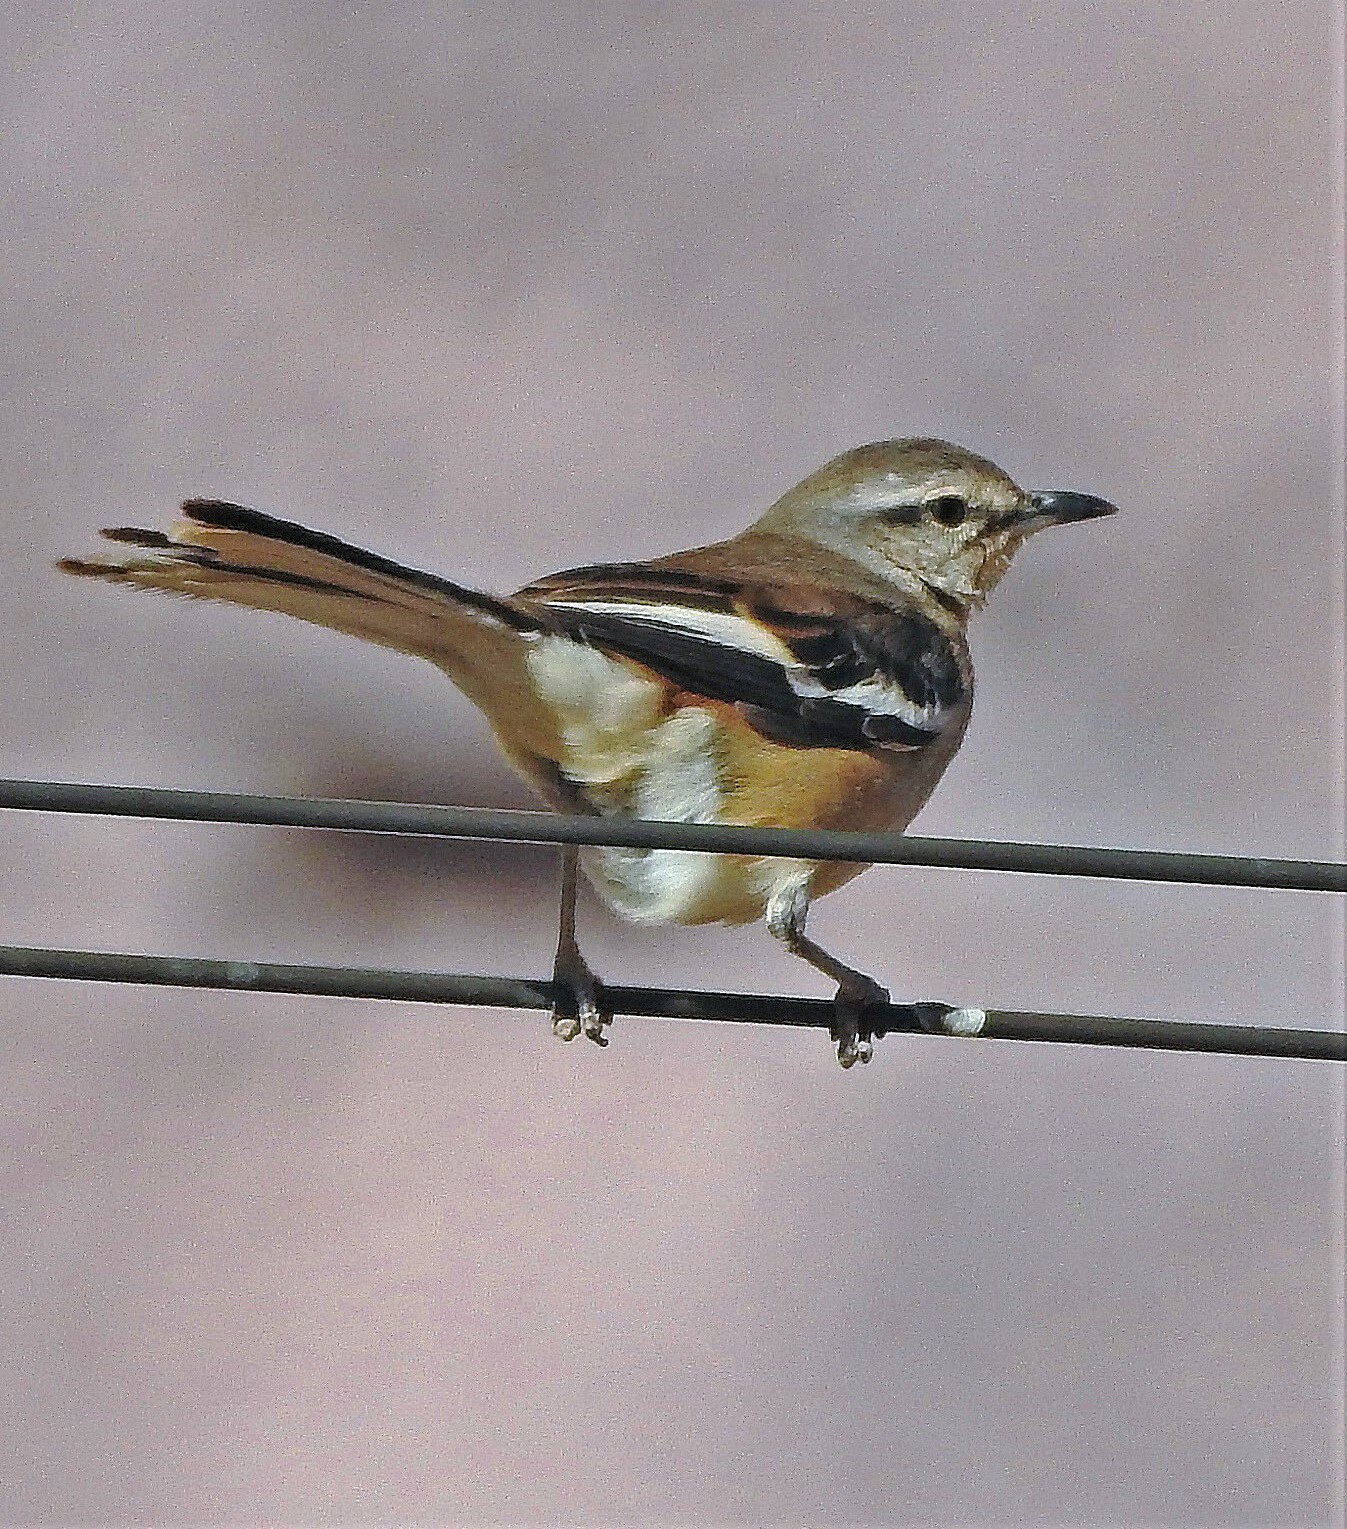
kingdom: Animalia
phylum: Chordata
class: Aves
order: Passeriformes
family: Mimidae
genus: Mimus
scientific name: Mimus triurus
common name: White-banded mockingbird
